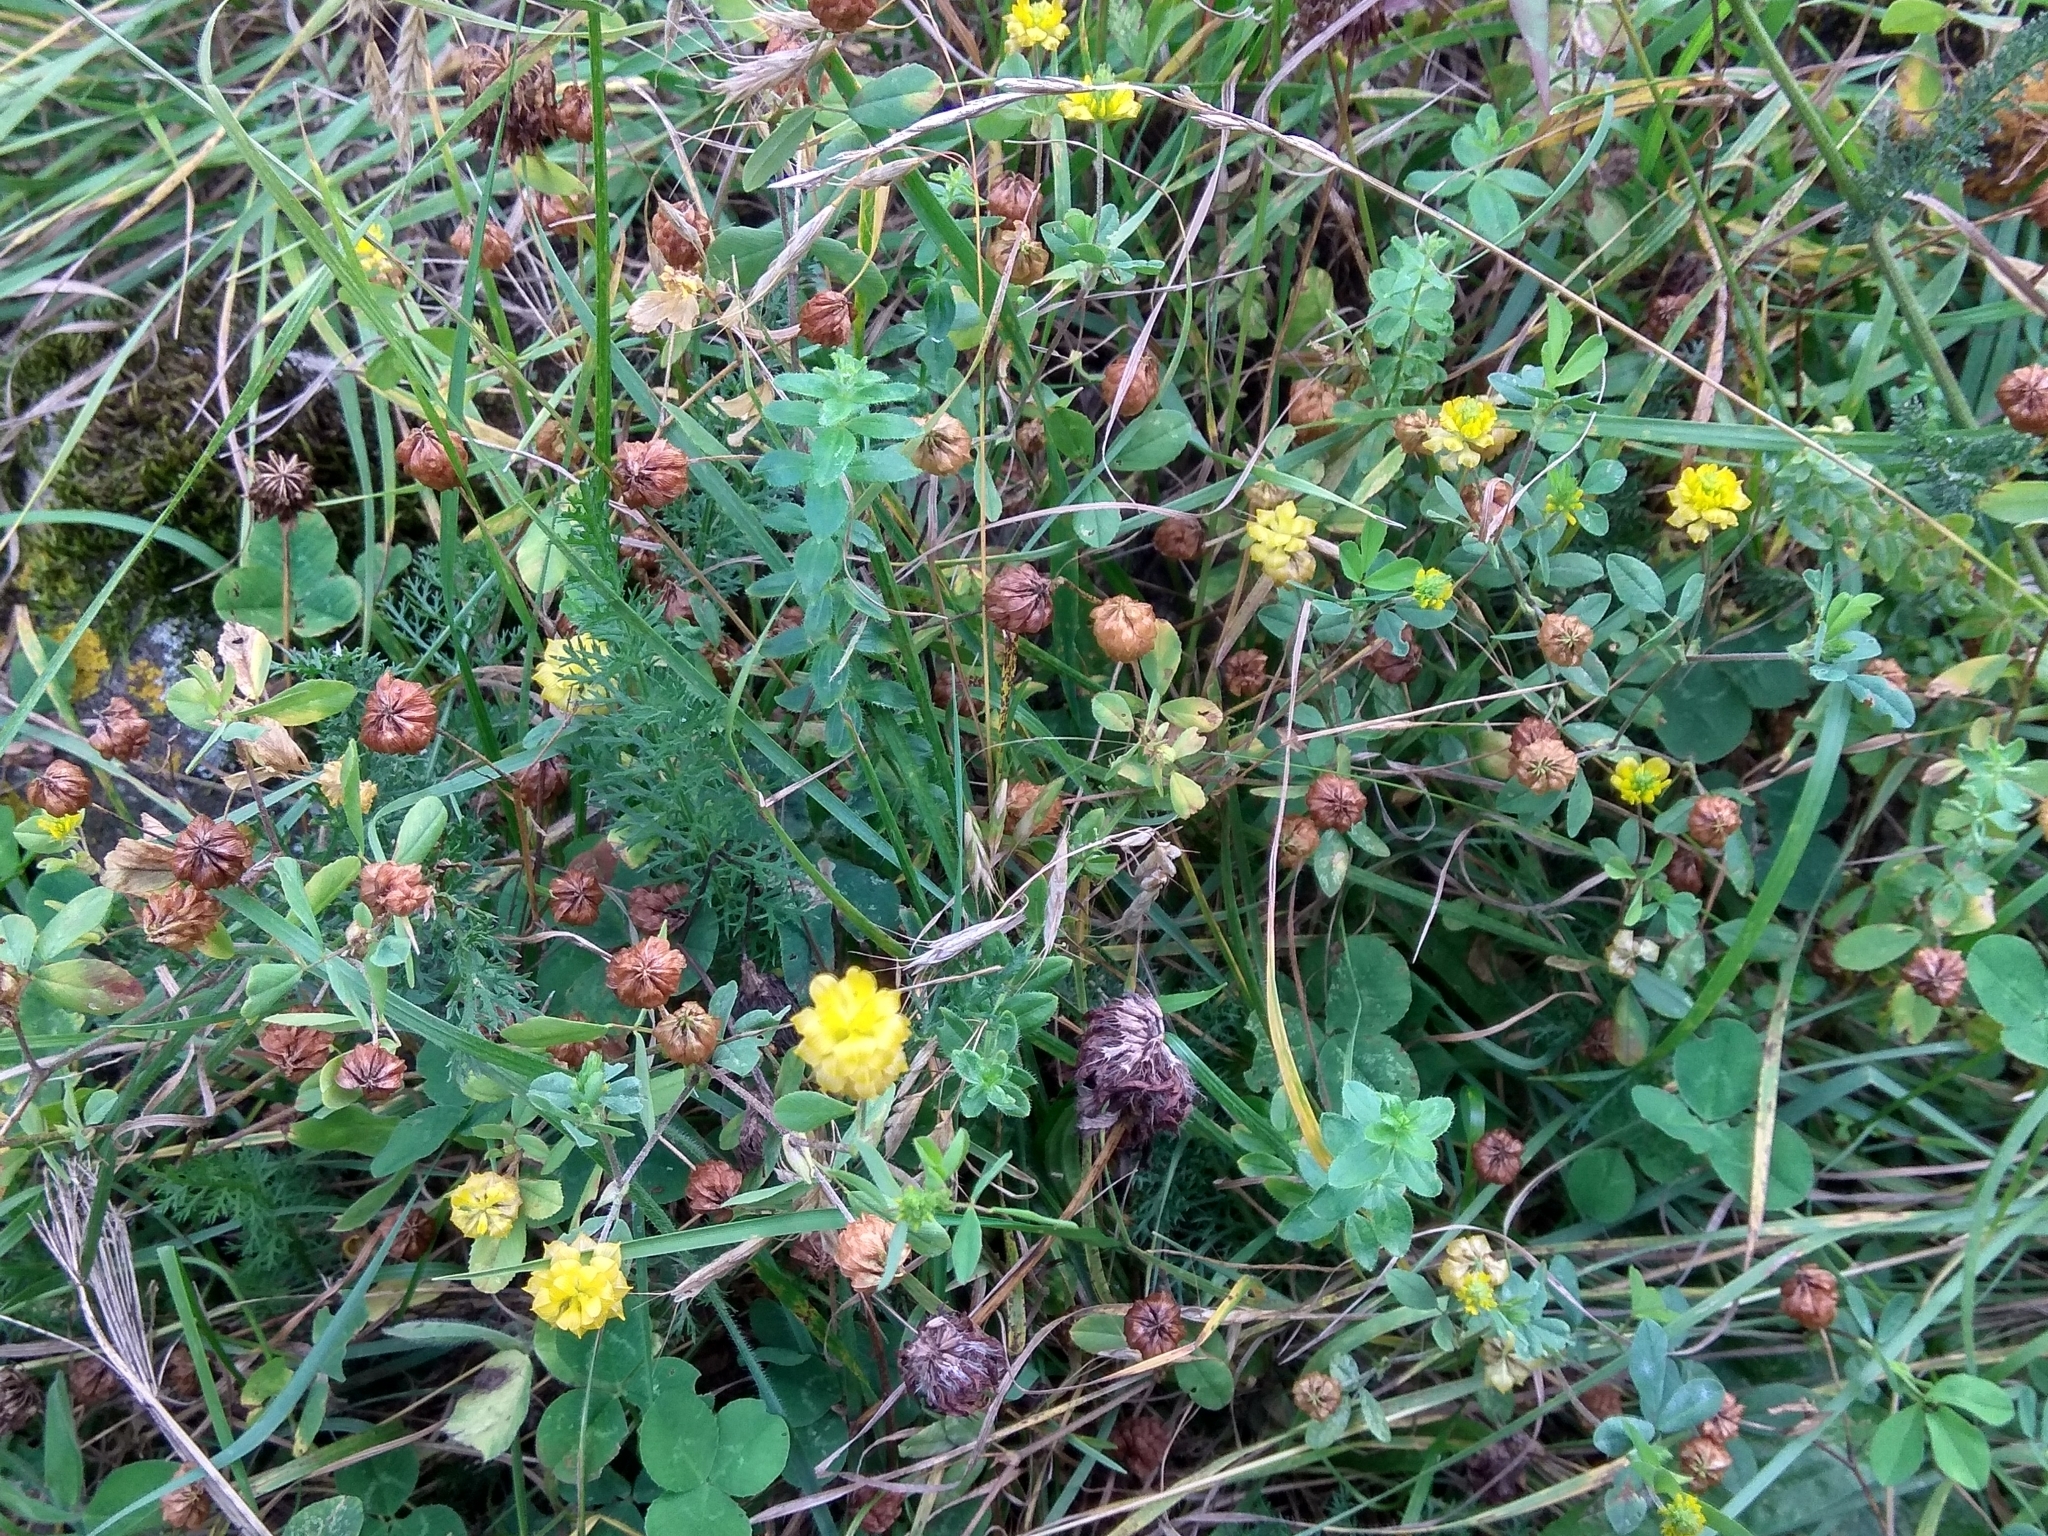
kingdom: Plantae
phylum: Tracheophyta
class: Magnoliopsida
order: Fabales
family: Fabaceae
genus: Trifolium
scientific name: Trifolium campestre
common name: Field clover
